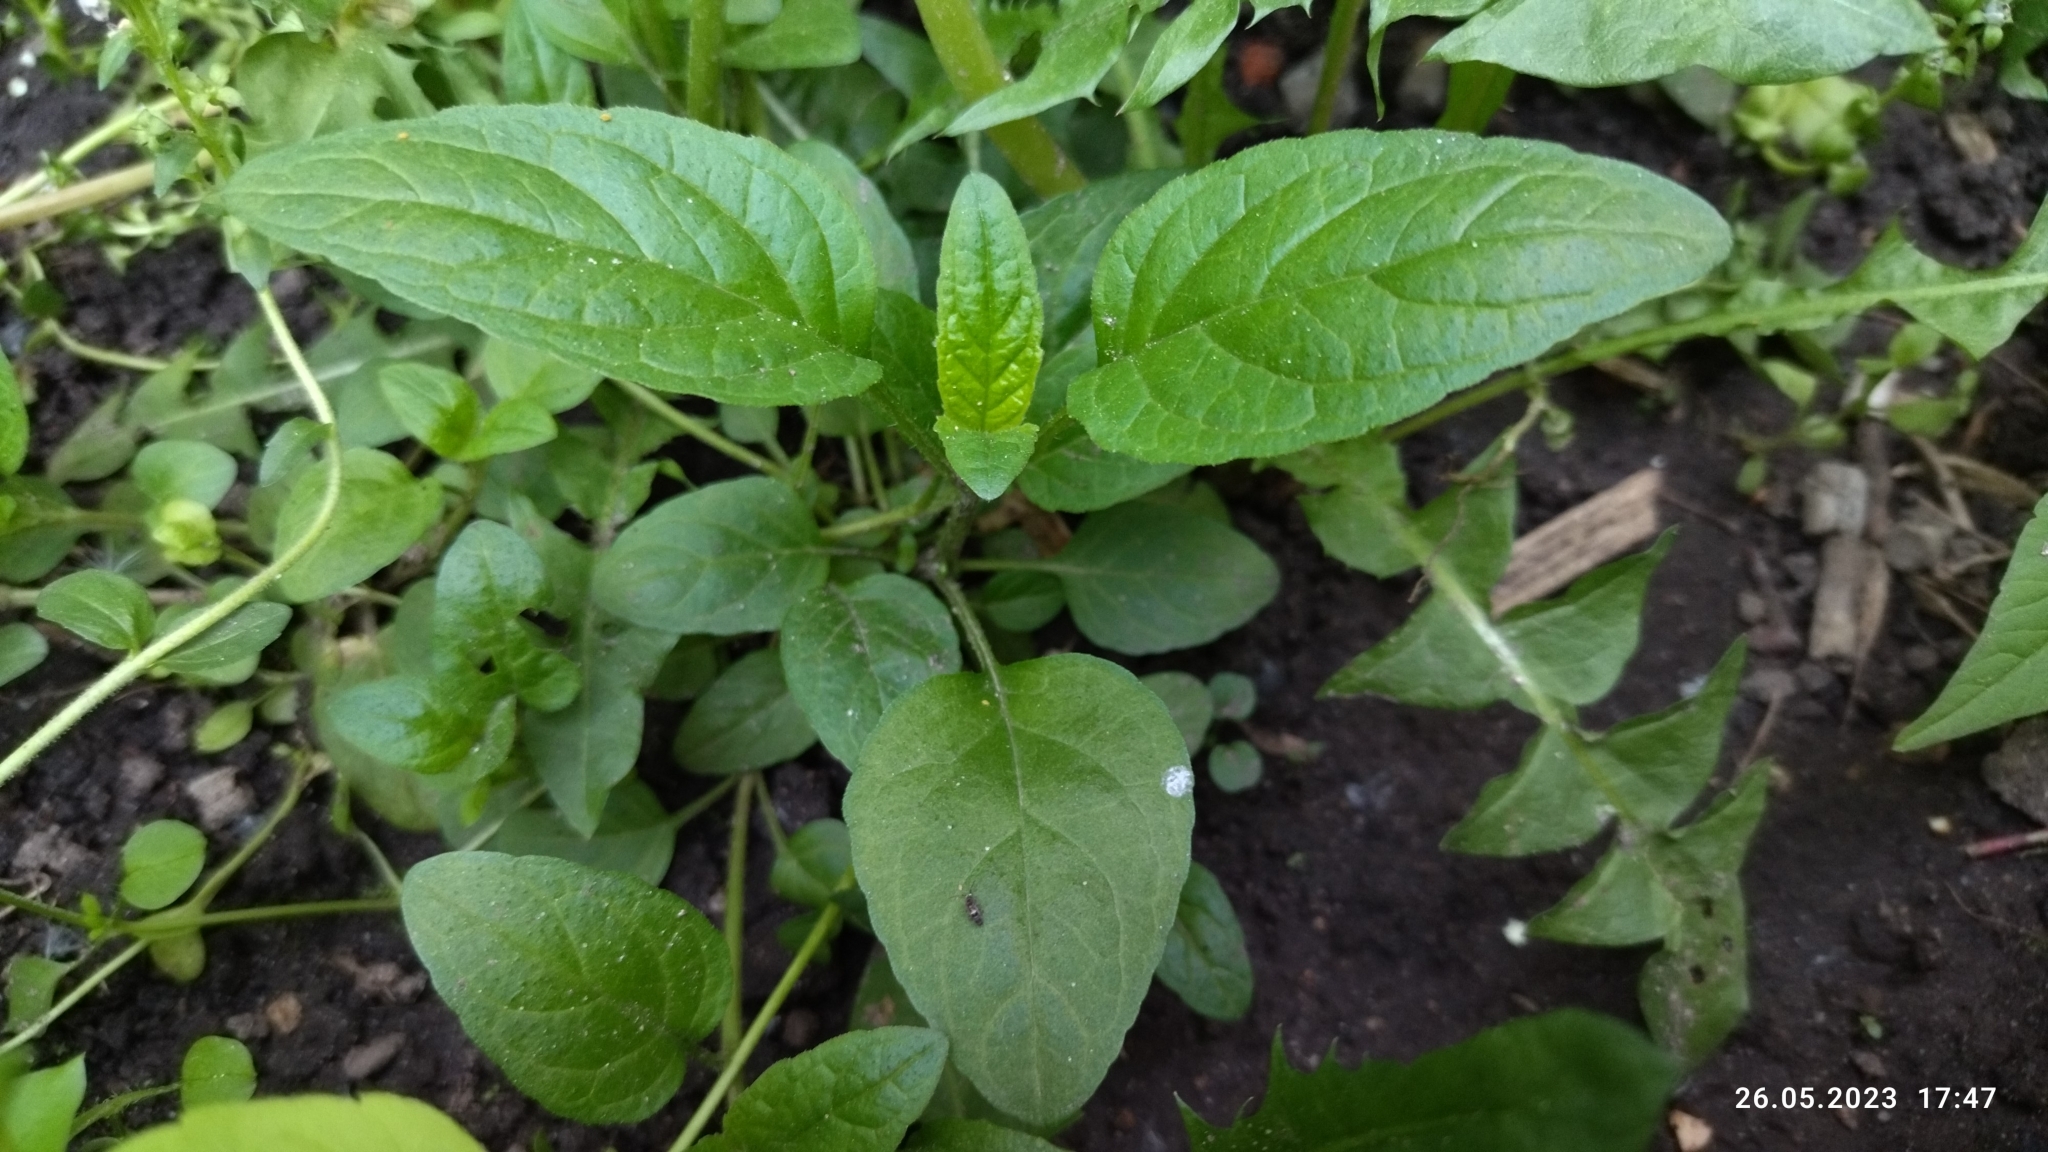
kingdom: Plantae
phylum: Tracheophyta
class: Magnoliopsida
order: Lamiales
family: Lamiaceae
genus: Prunella
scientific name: Prunella vulgaris
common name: Heal-all
